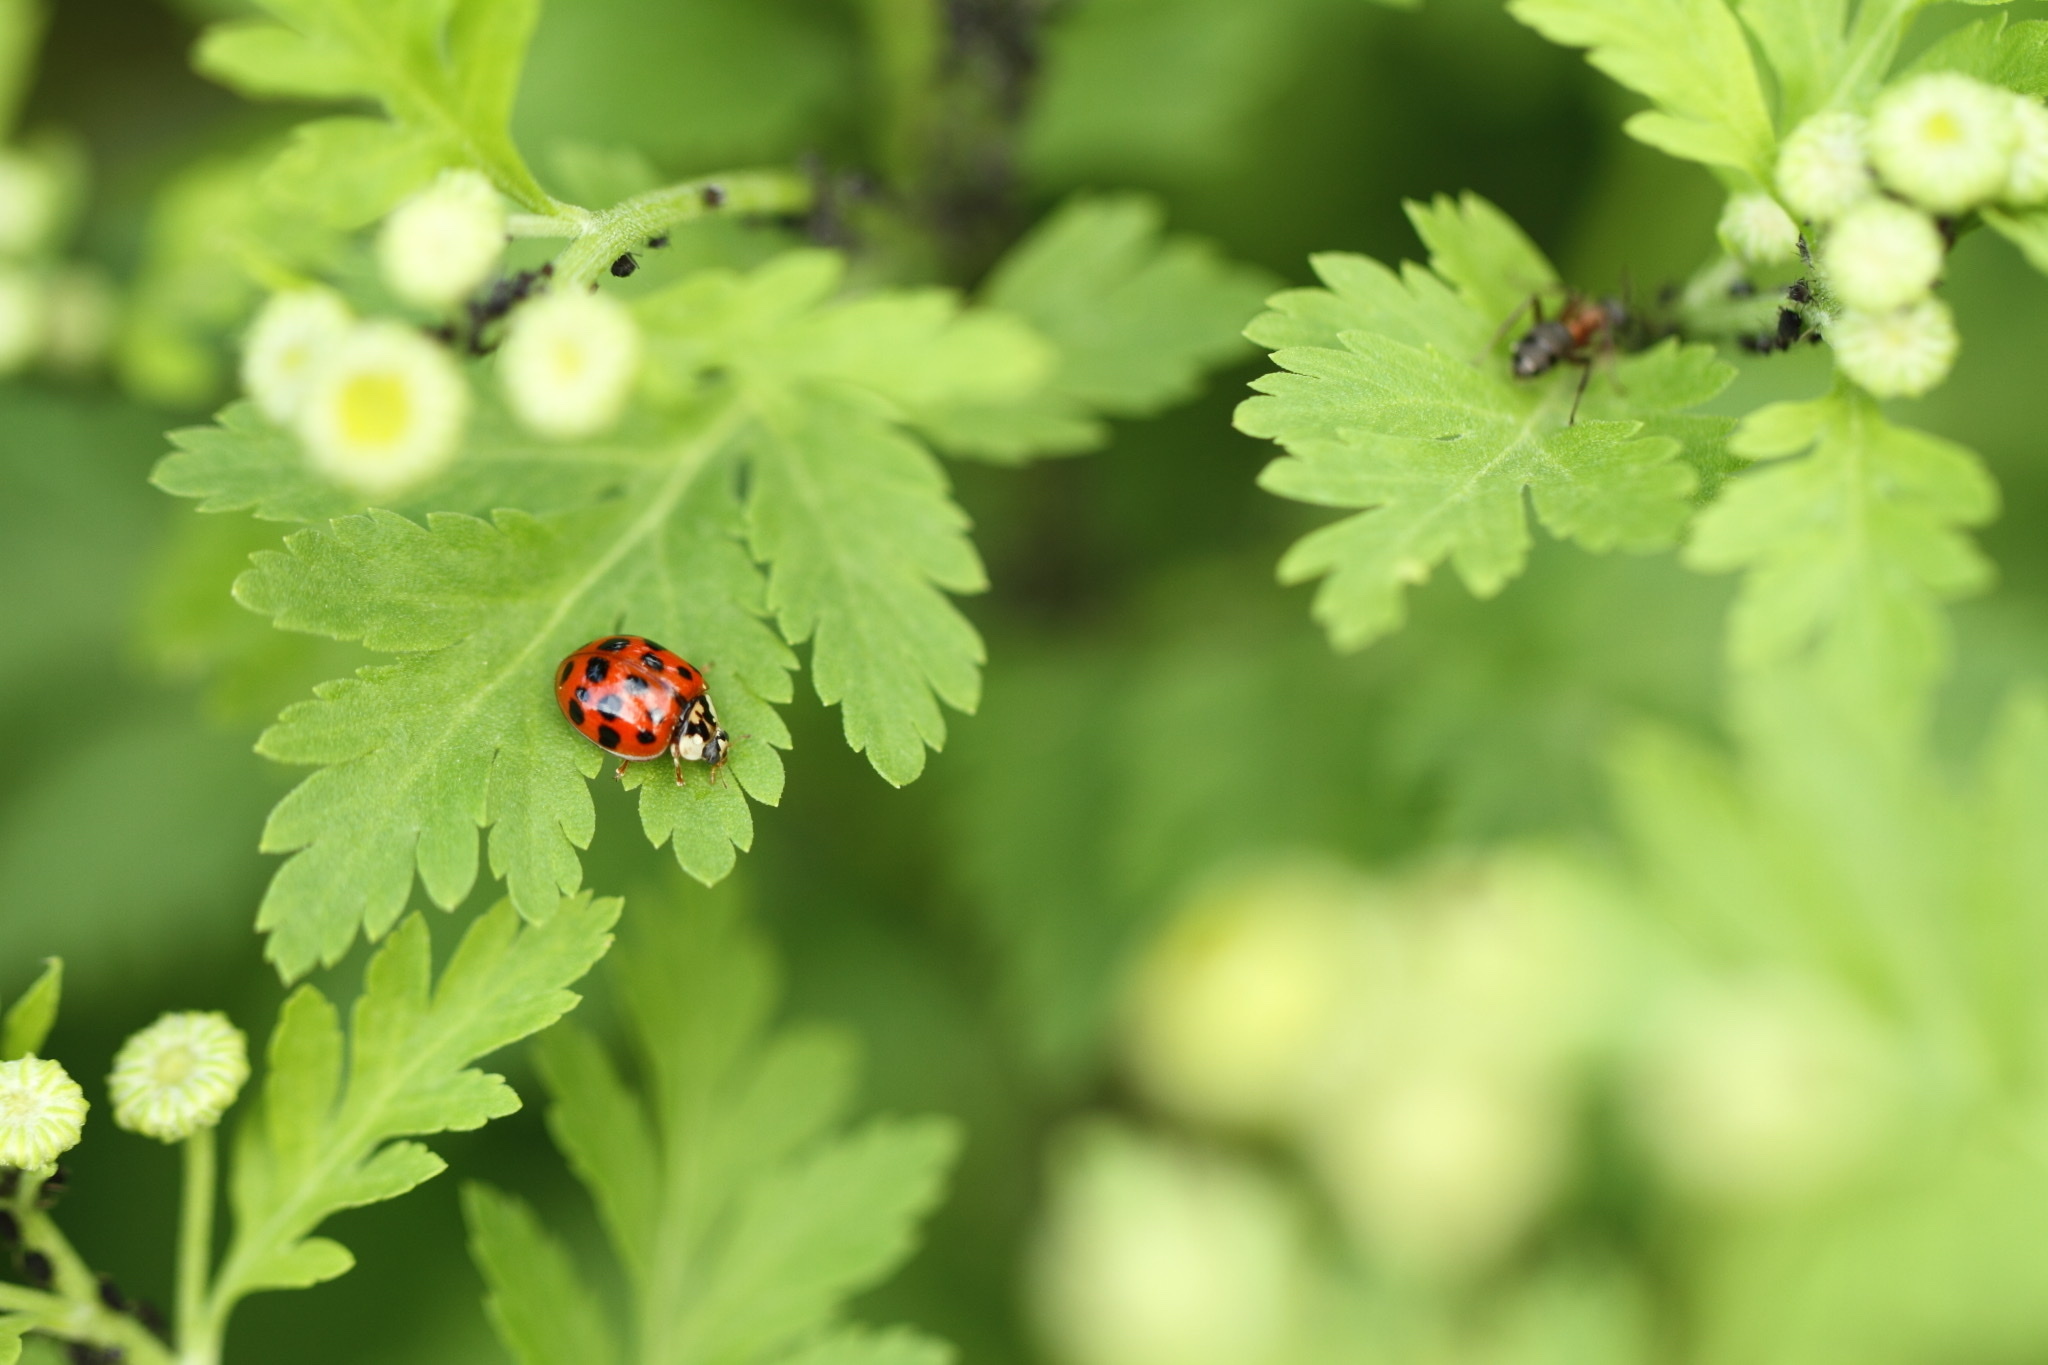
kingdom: Animalia
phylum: Arthropoda
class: Insecta
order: Coleoptera
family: Coccinellidae
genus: Harmonia
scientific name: Harmonia axyridis
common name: Harlequin ladybird
